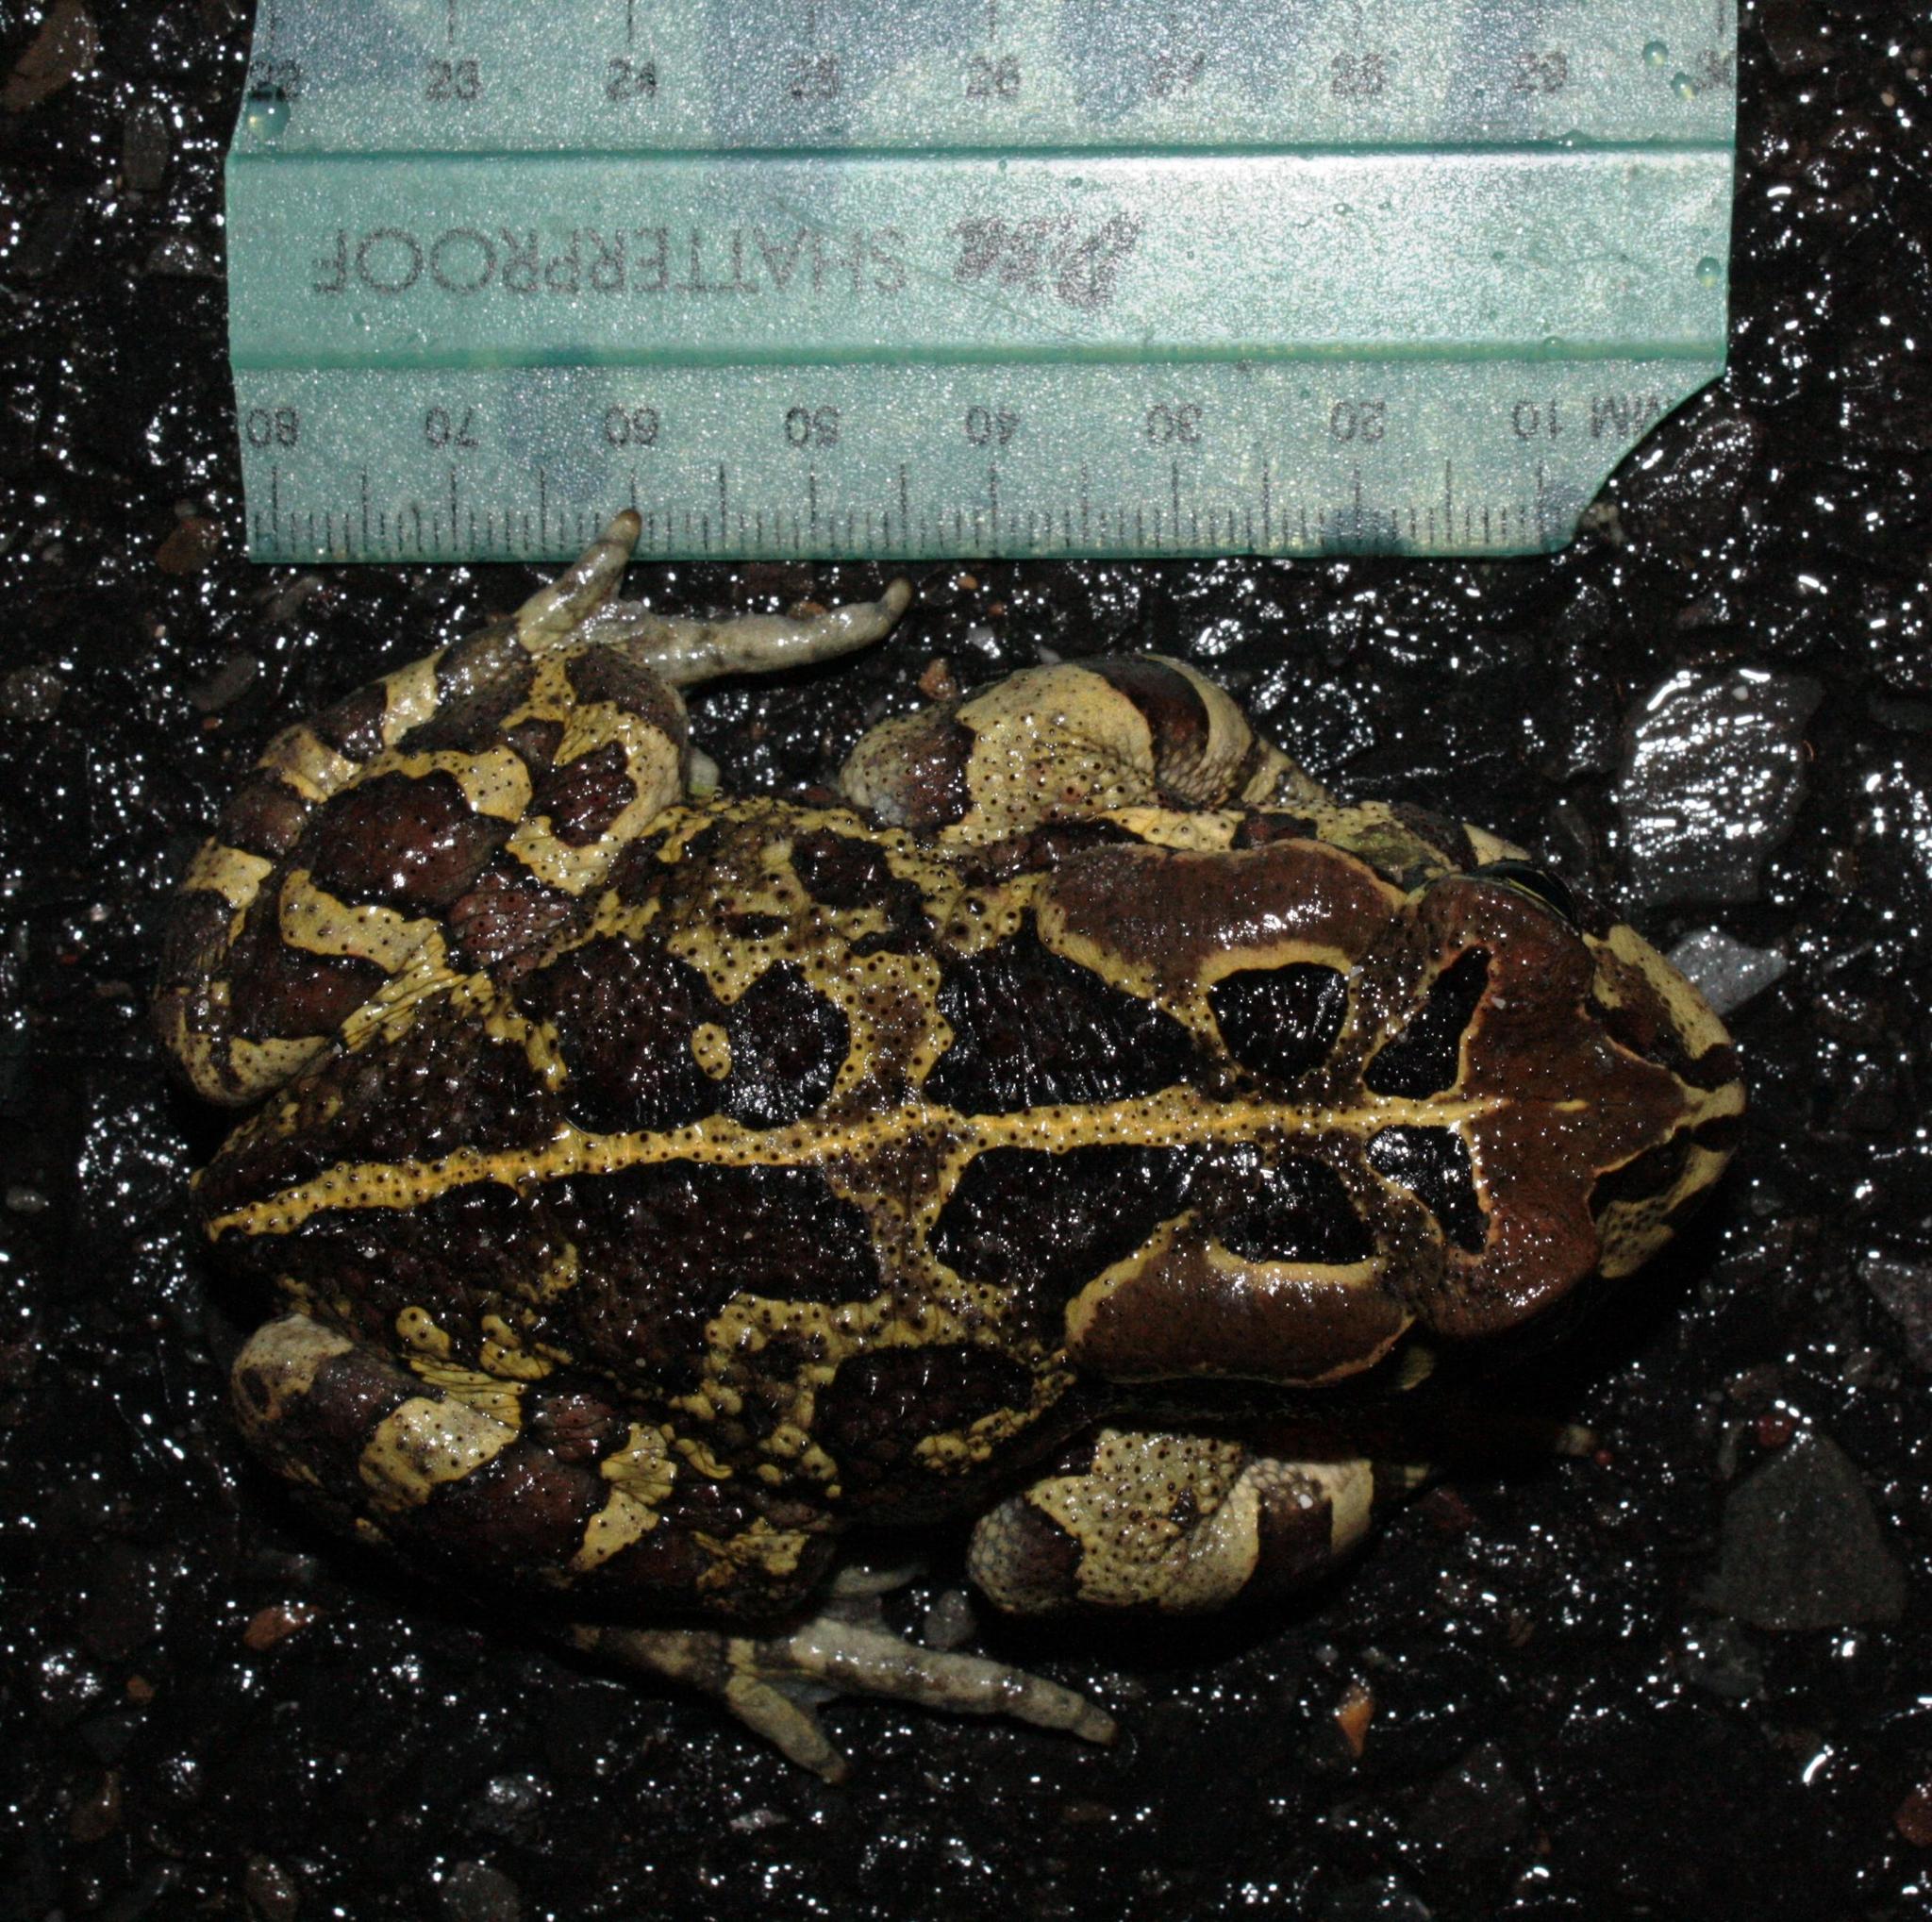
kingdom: Animalia
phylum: Chordata
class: Amphibia
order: Anura
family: Bufonidae
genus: Sclerophrys
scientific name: Sclerophrys pantherina
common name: Panther toad
